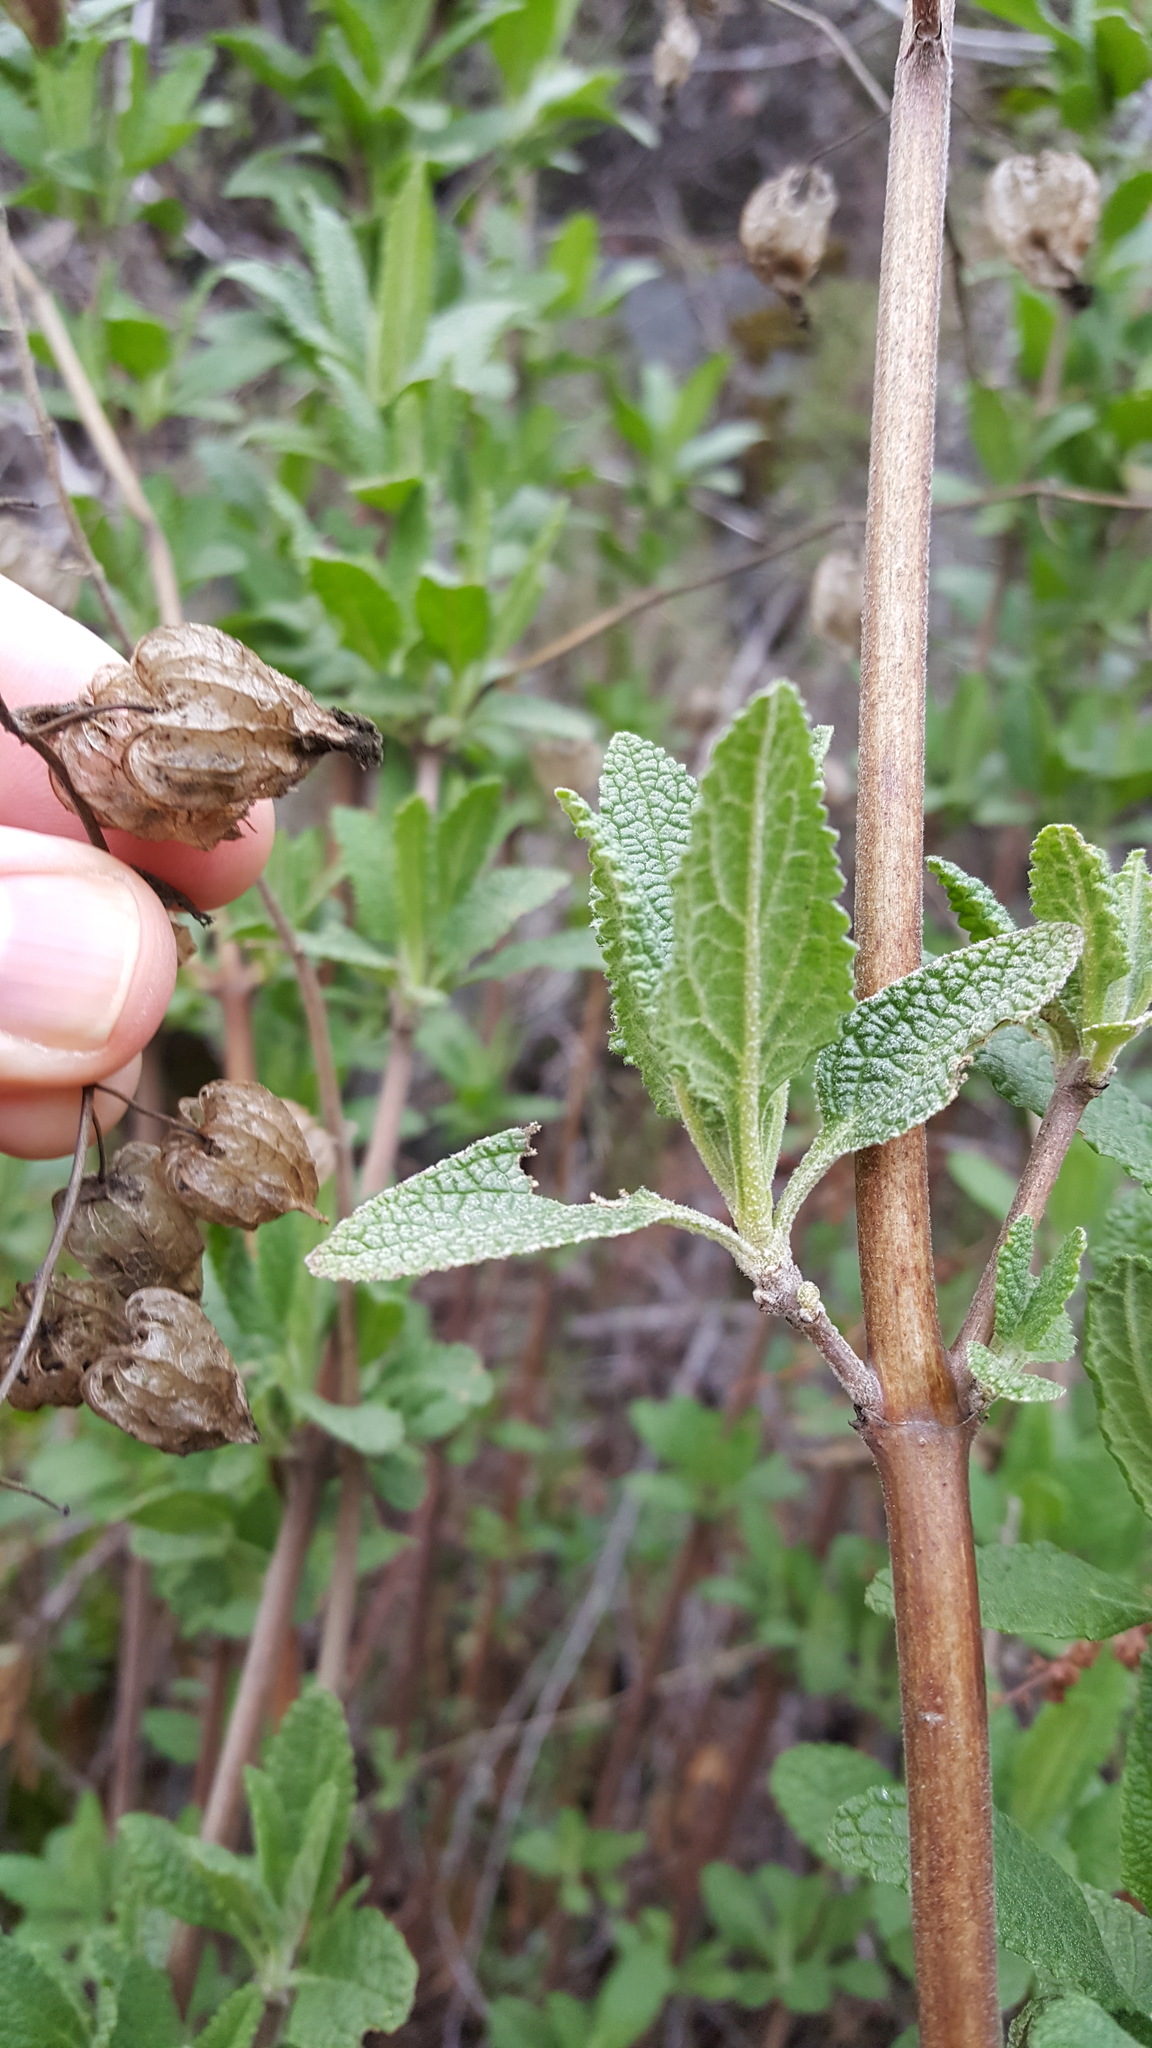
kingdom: Plantae
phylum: Tracheophyta
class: Magnoliopsida
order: Lamiales
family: Lamiaceae
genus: Lepechinia
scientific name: Lepechinia calycina
